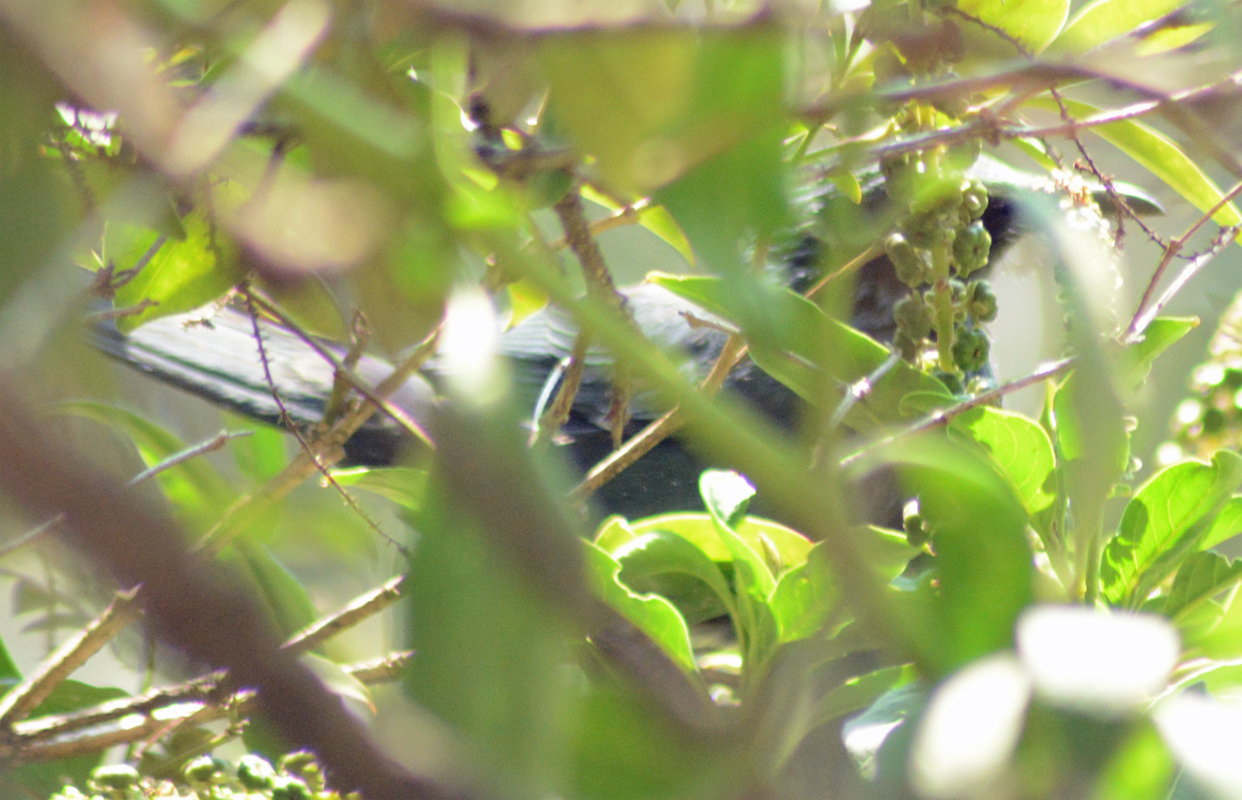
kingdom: Animalia
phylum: Chordata
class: Aves
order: Passeriformes
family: Mimidae
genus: Melanotis
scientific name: Melanotis caerulescens
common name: Blue mockingbird
